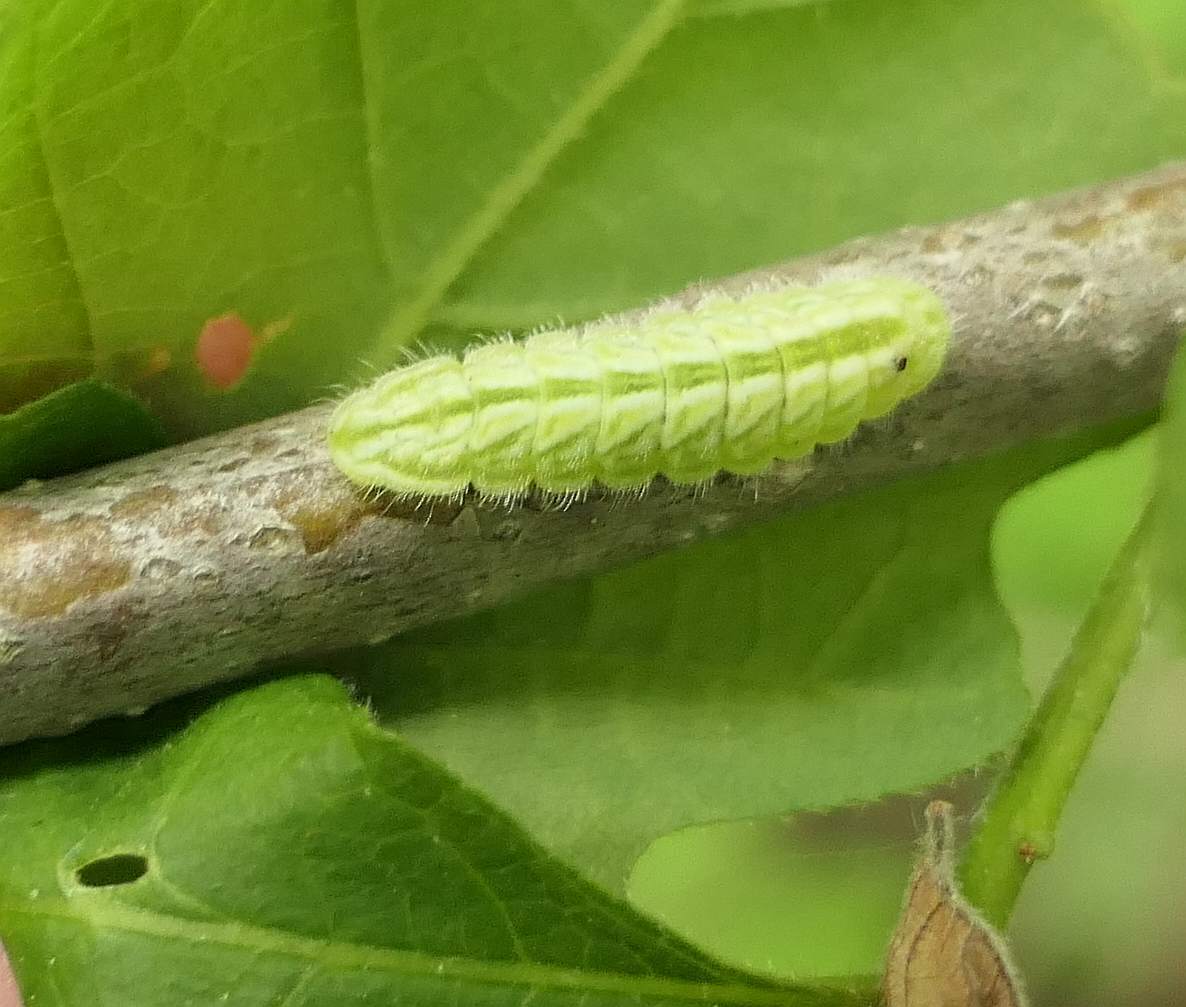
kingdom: Animalia
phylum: Arthropoda
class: Insecta
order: Lepidoptera
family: Lycaenidae
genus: Satyrium
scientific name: Satyrium calanus
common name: Banded hairstreak
